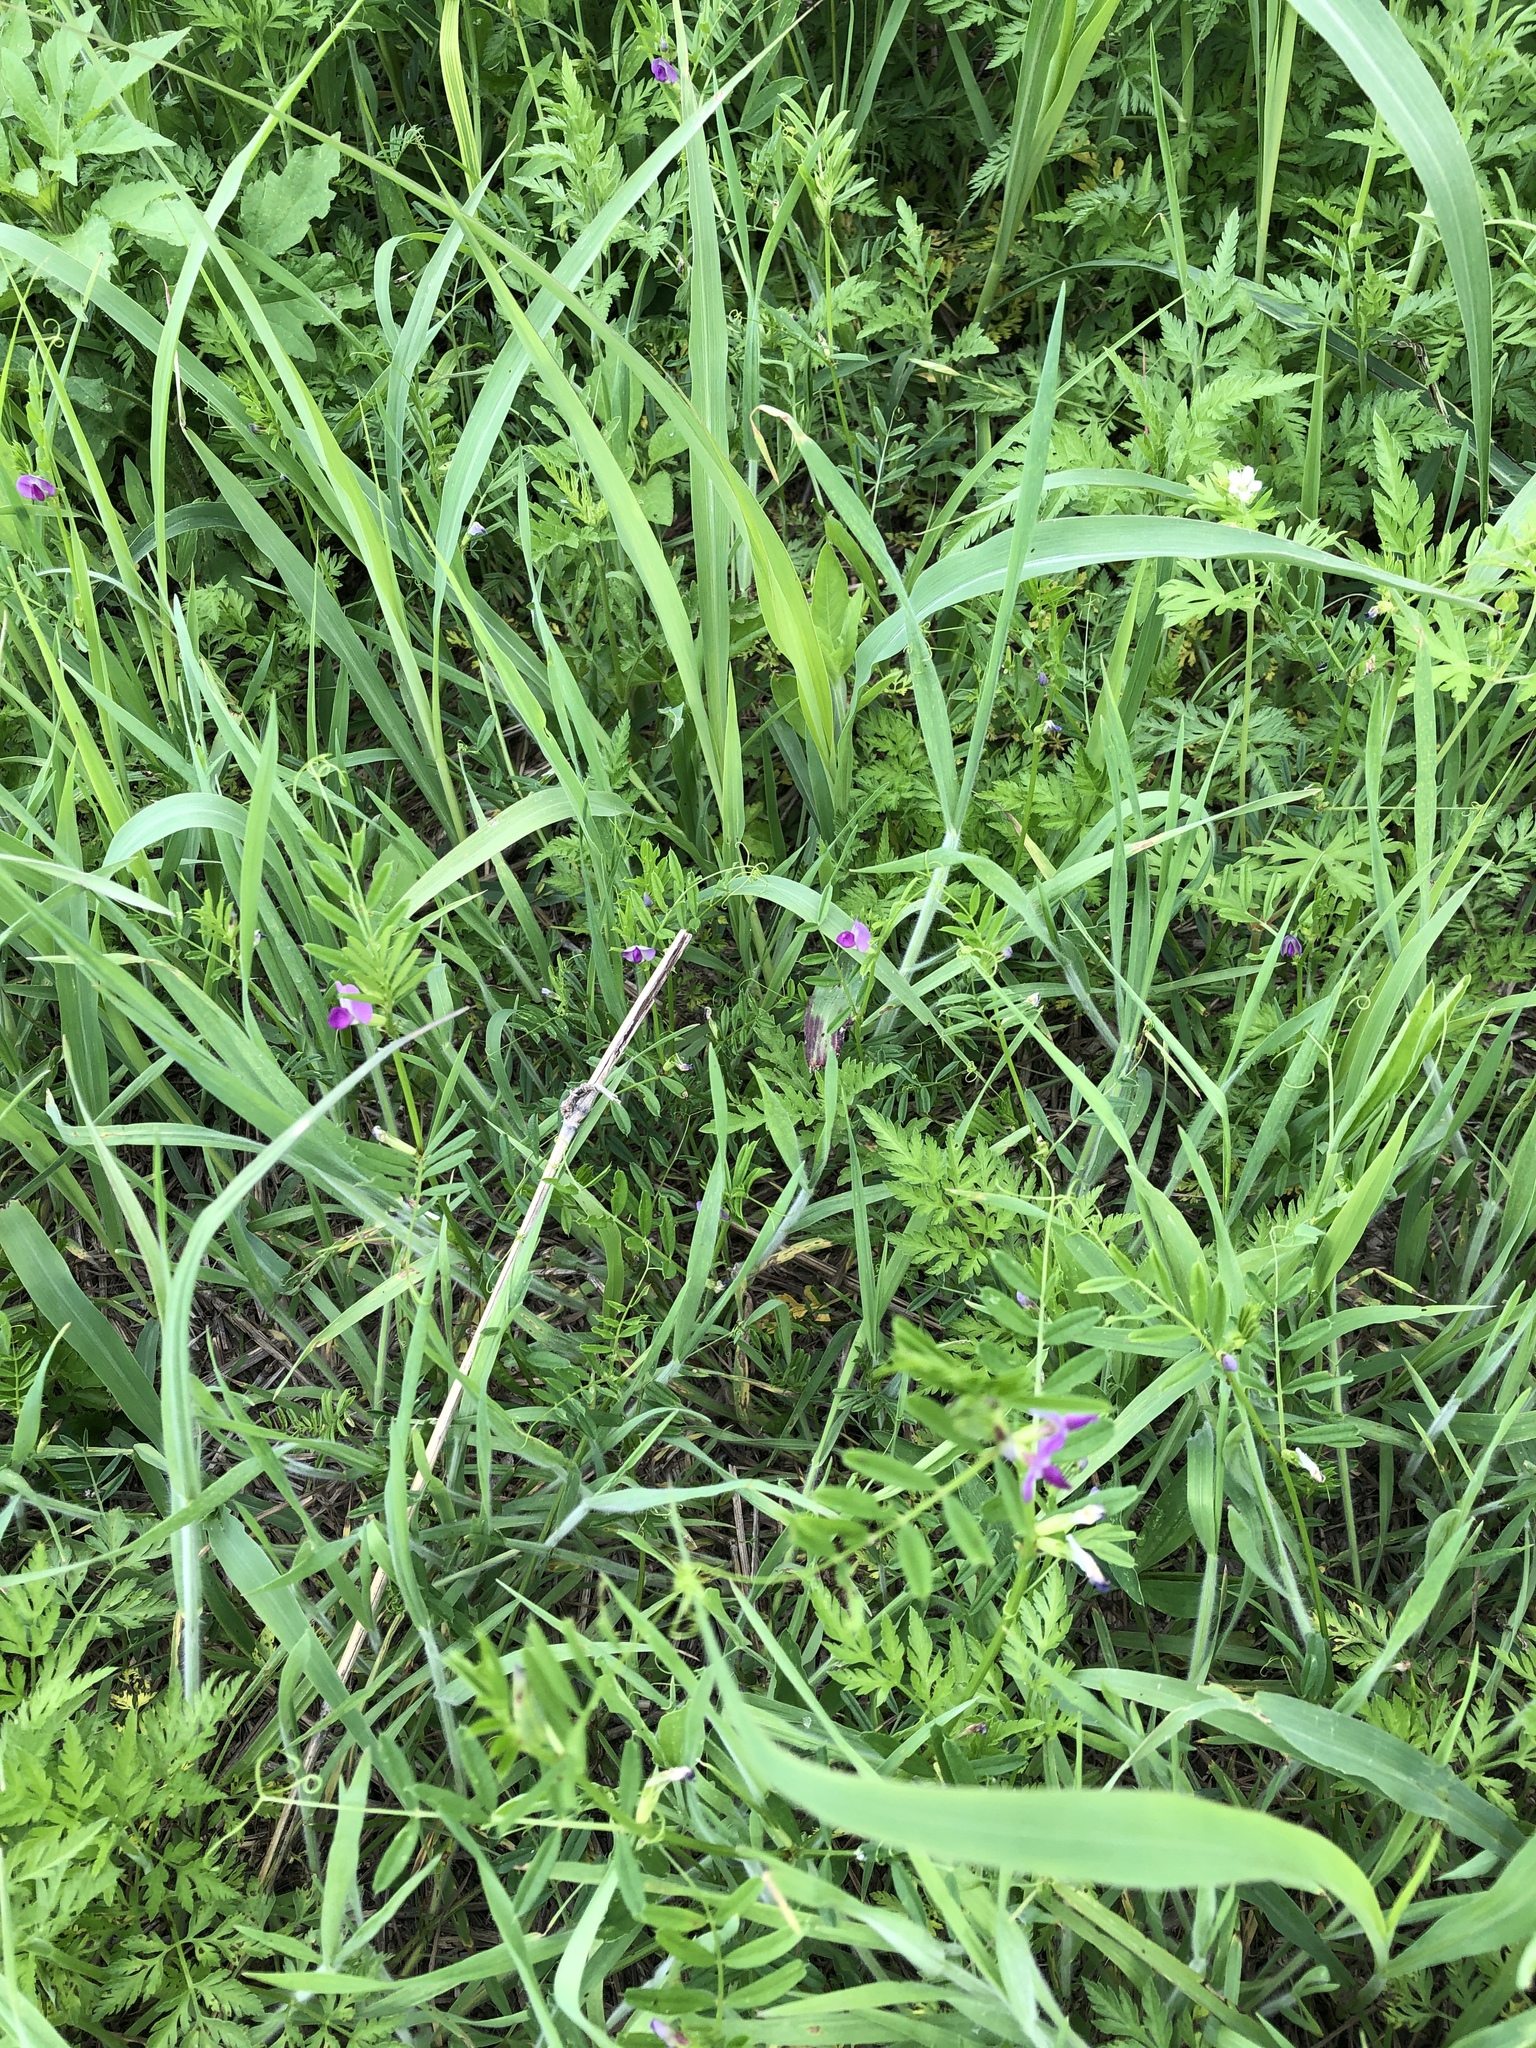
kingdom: Plantae
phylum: Tracheophyta
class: Magnoliopsida
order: Fabales
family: Fabaceae
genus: Vicia
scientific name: Vicia sativa
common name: Garden vetch
